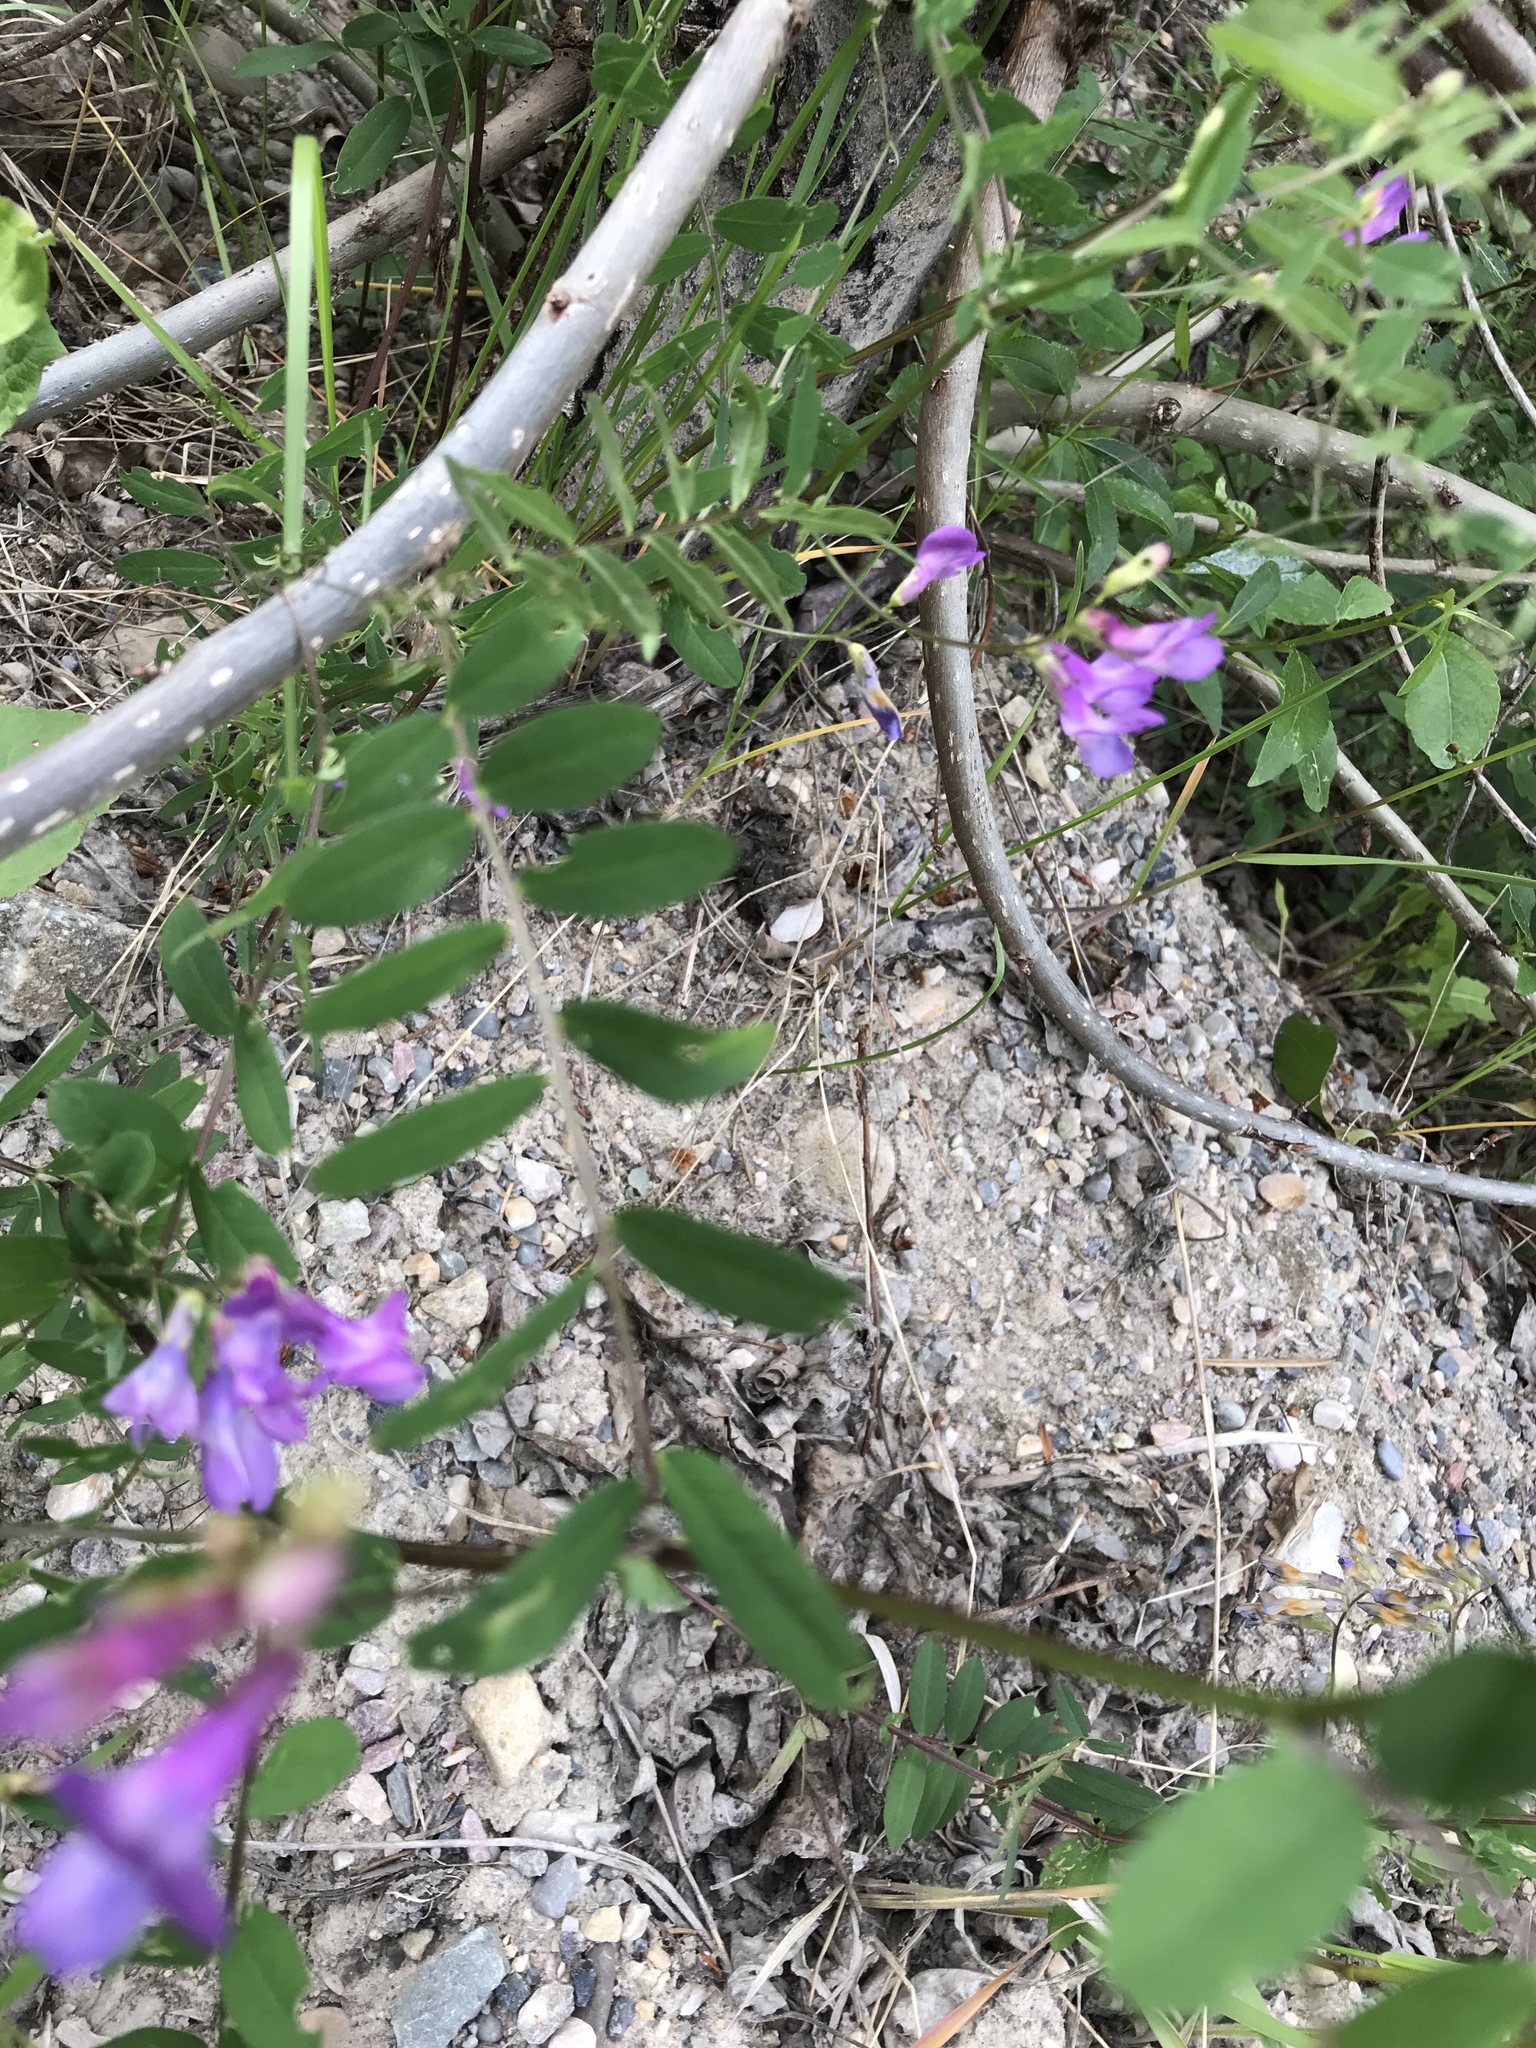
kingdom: Plantae
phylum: Tracheophyta
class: Magnoliopsida
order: Fabales
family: Fabaceae
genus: Vicia
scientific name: Vicia americana
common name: American vetch
